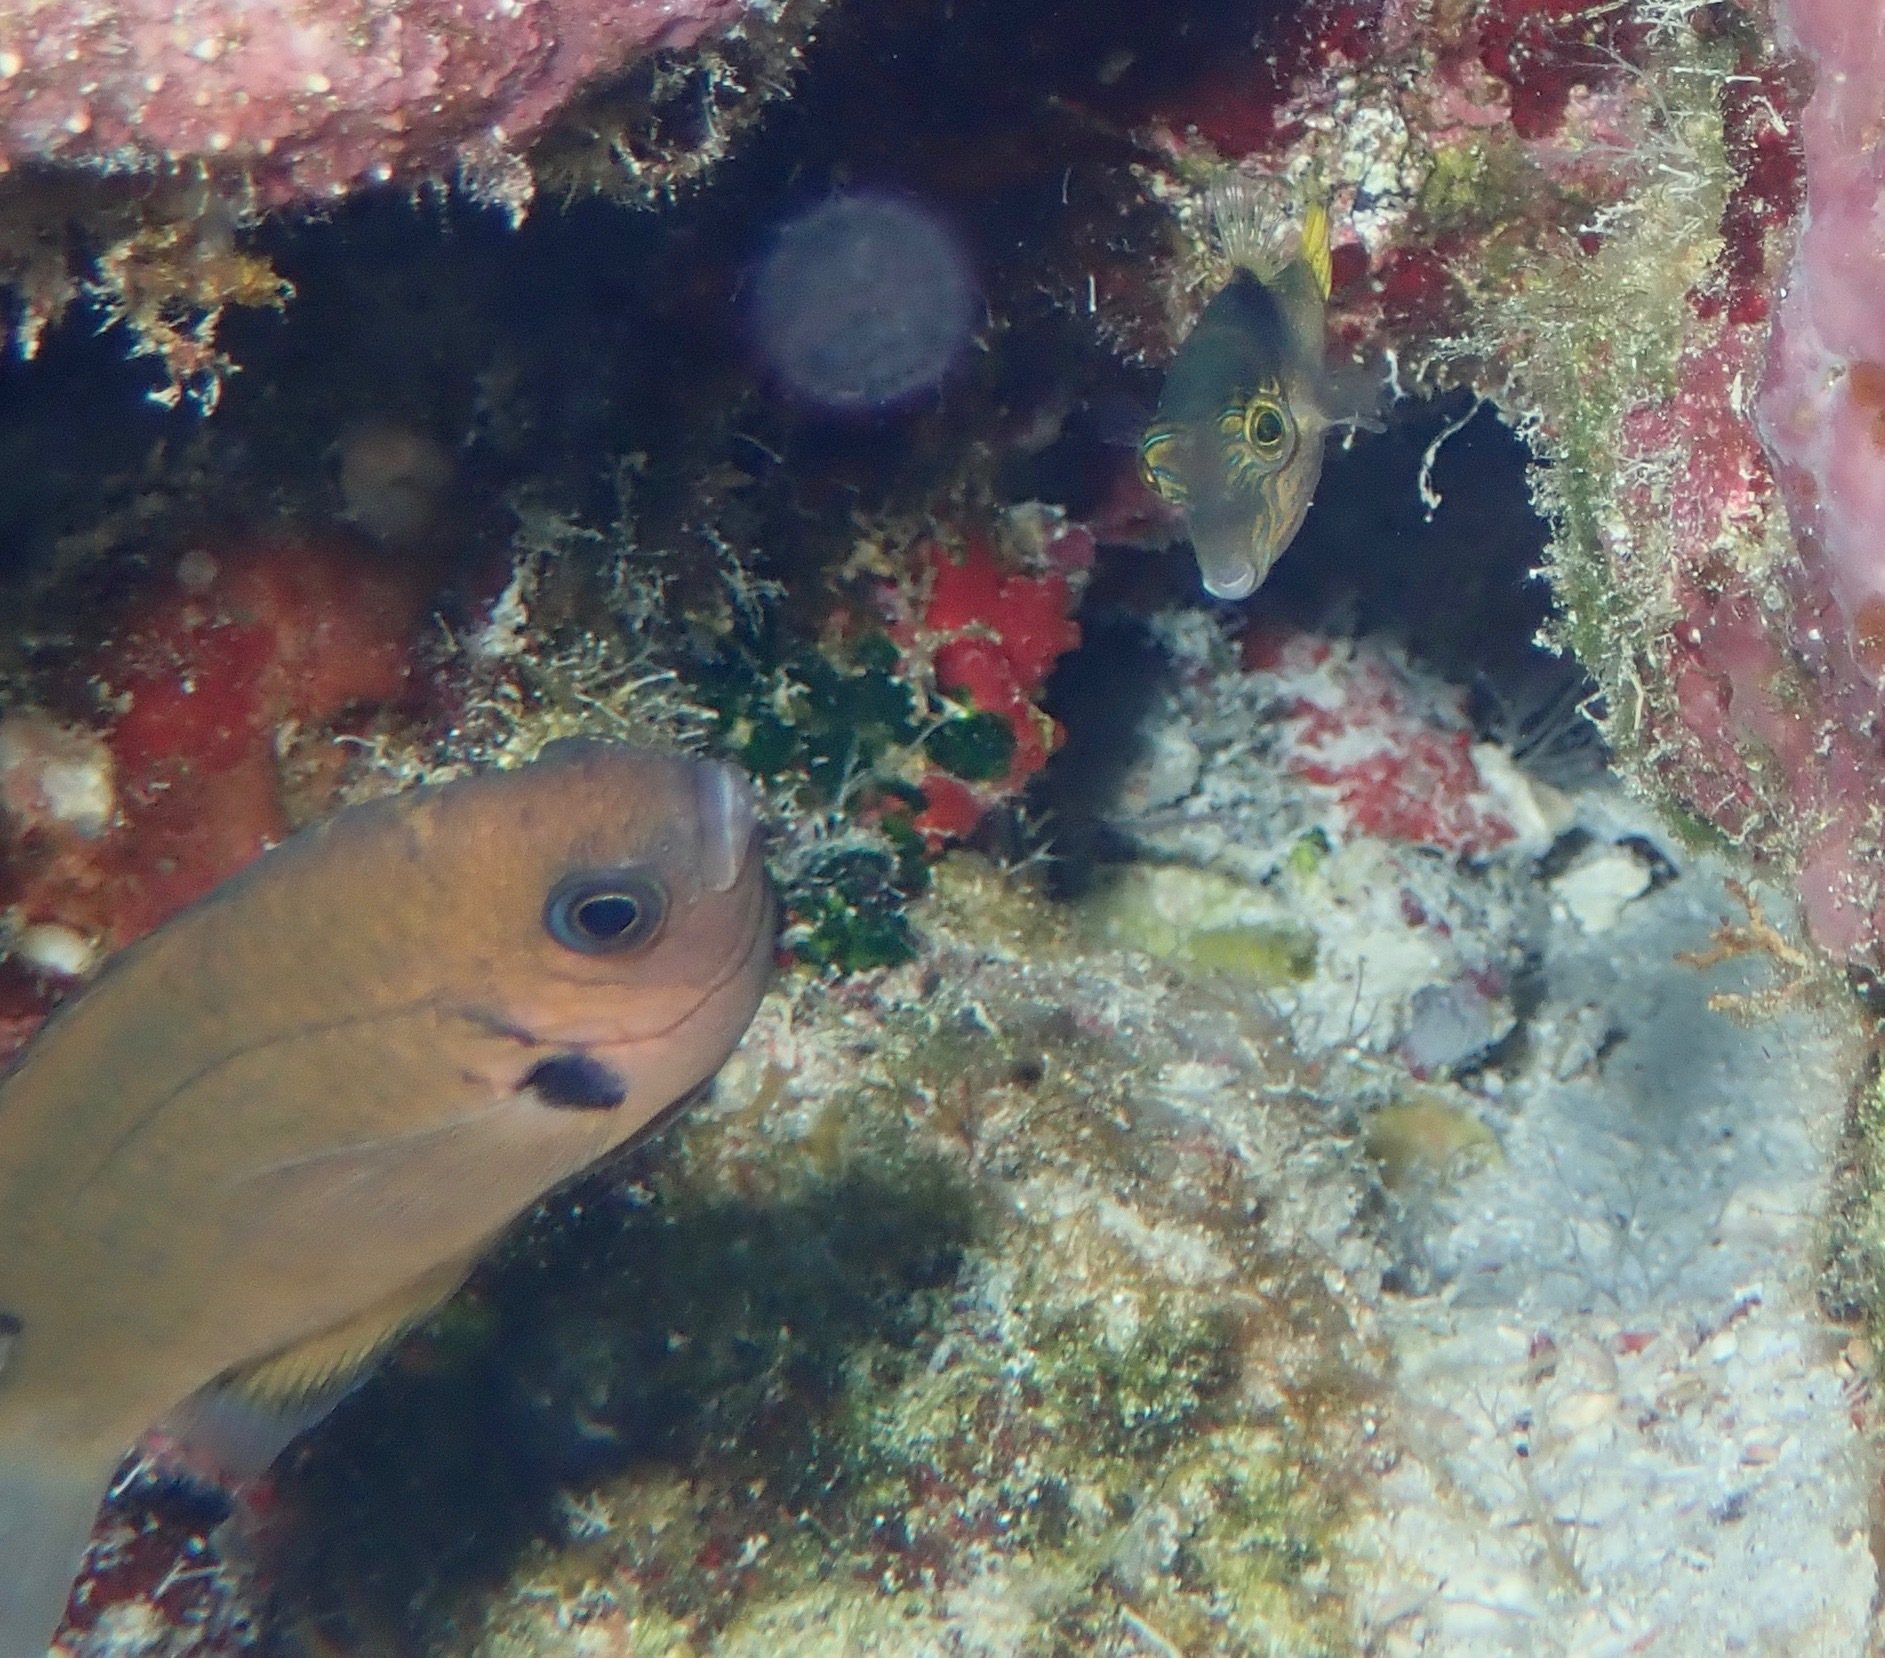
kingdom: Animalia
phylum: Chordata
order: Perciformes
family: Pomacentridae
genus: Pycnochromis
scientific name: Pycnochromis pacifica
